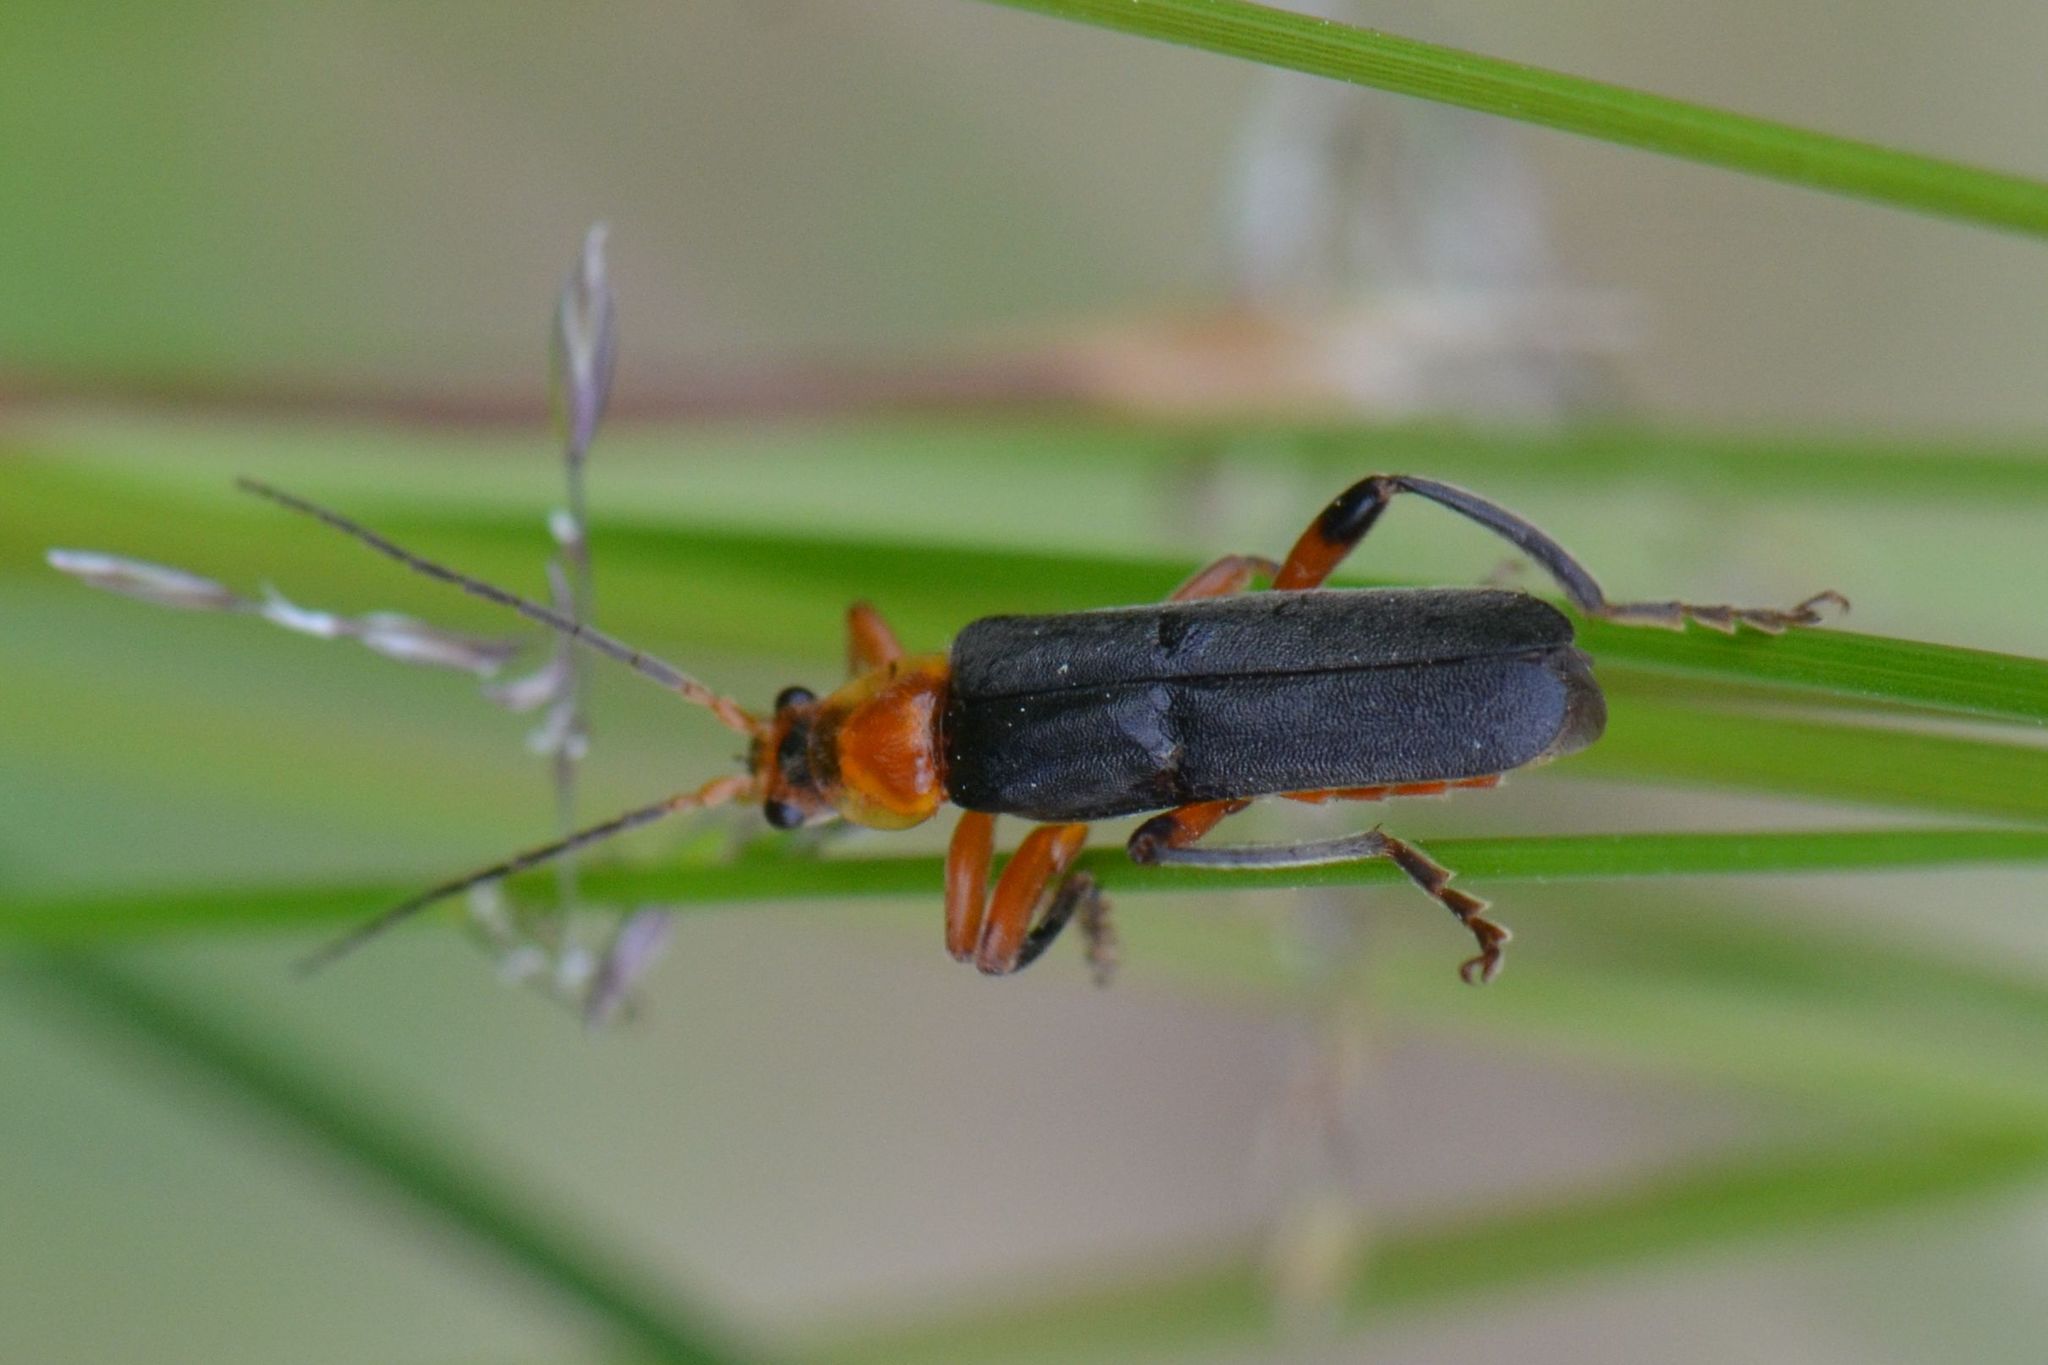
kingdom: Animalia
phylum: Arthropoda
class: Insecta
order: Coleoptera
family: Cantharidae
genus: Cantharis
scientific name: Cantharis livida
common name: Livid soldier beetle
